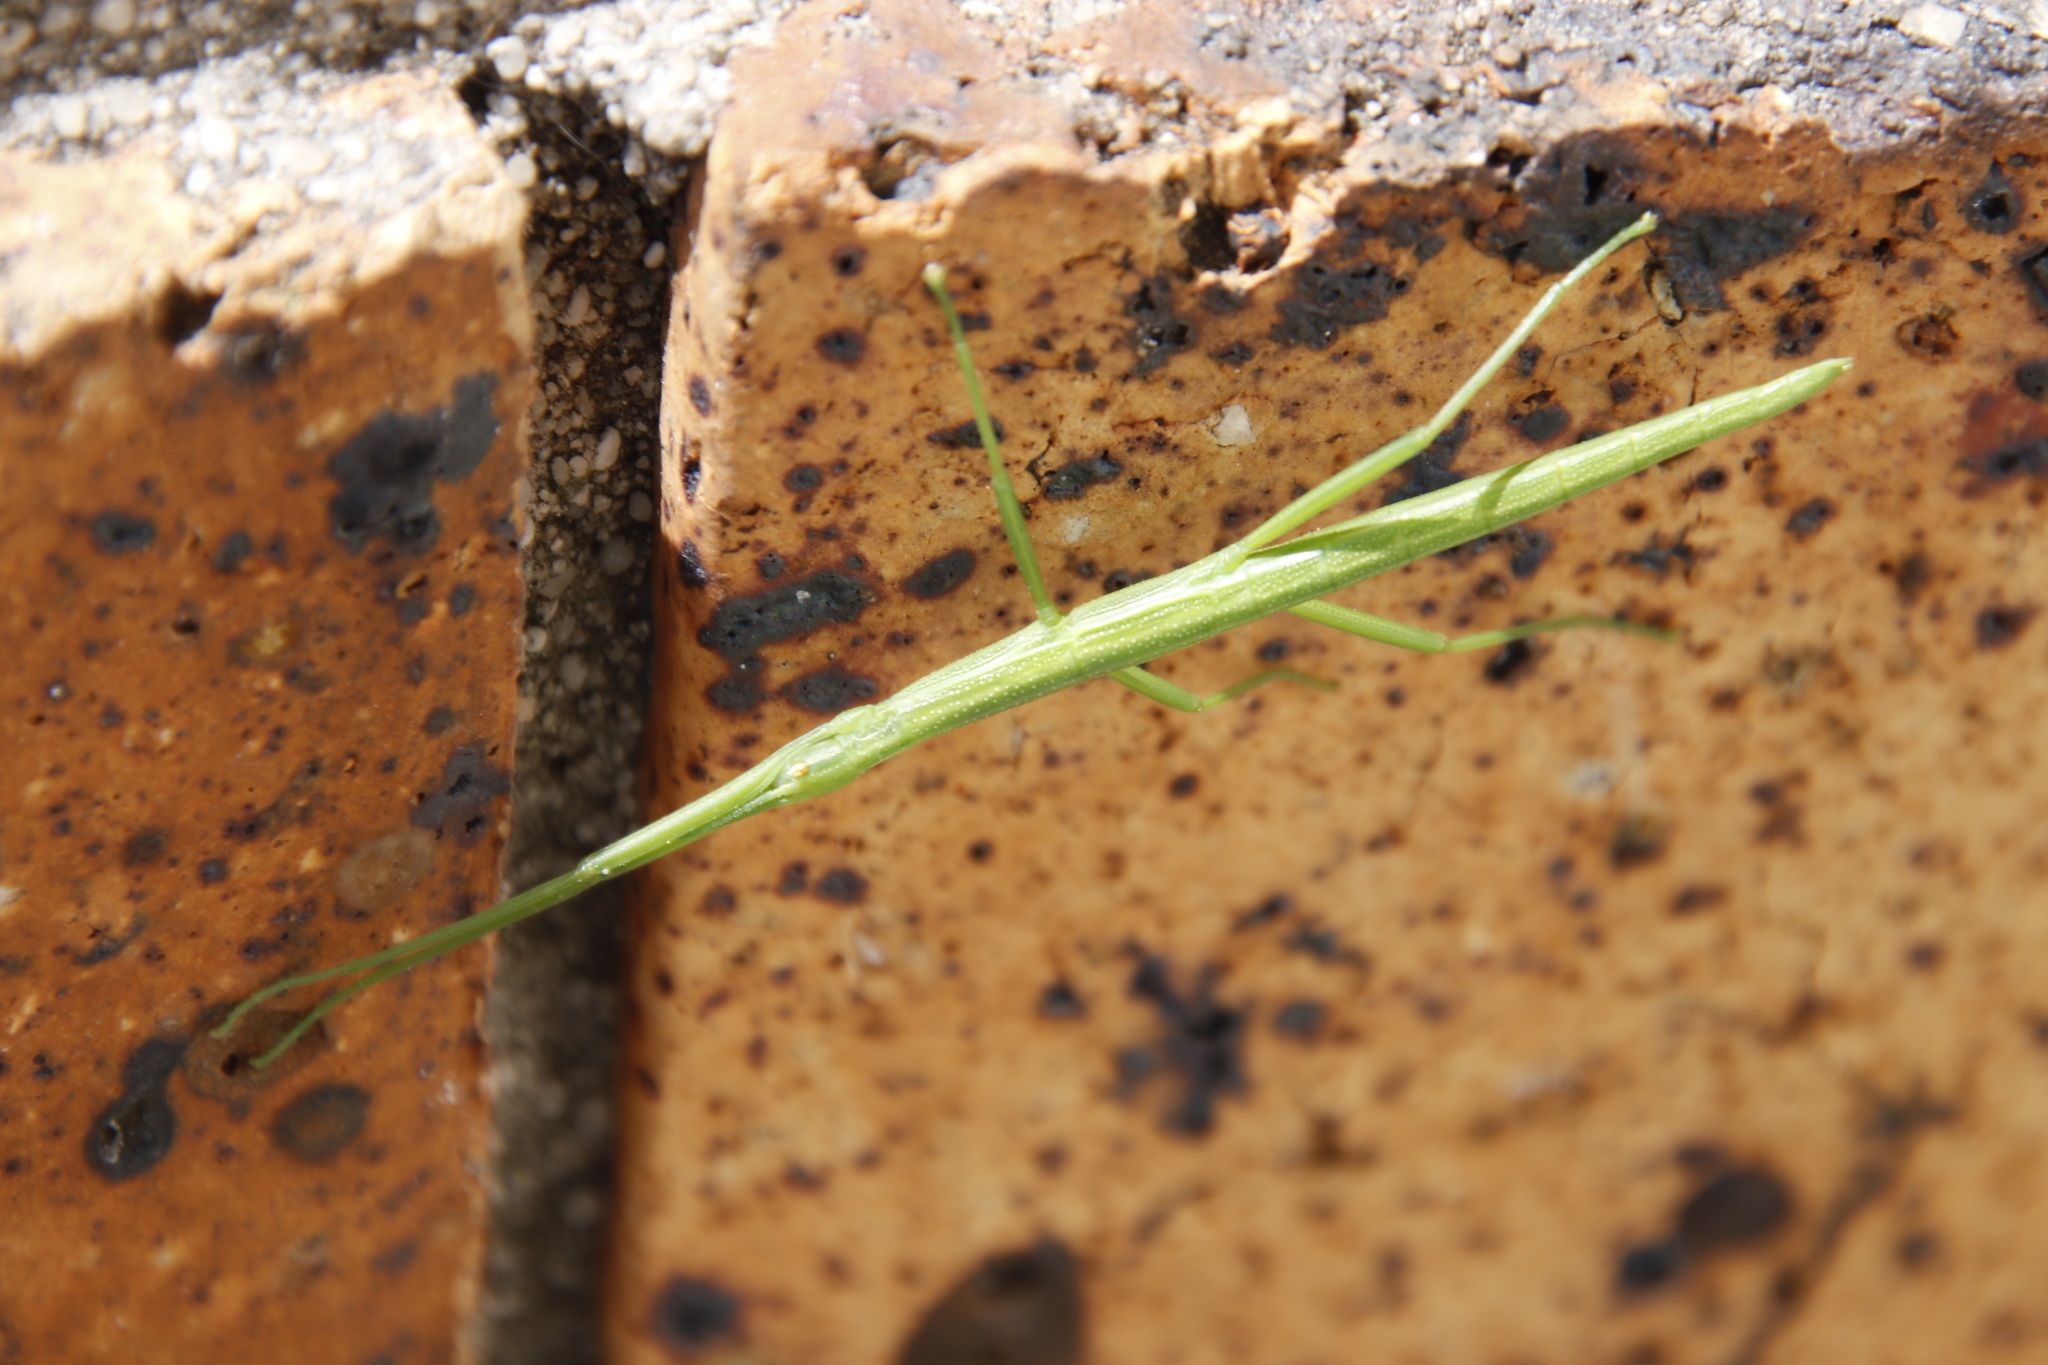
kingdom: Animalia
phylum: Arthropoda
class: Insecta
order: Phasmida
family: Bacillidae
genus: Macynia
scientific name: Macynia labiata
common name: Thunberg's stick insect
